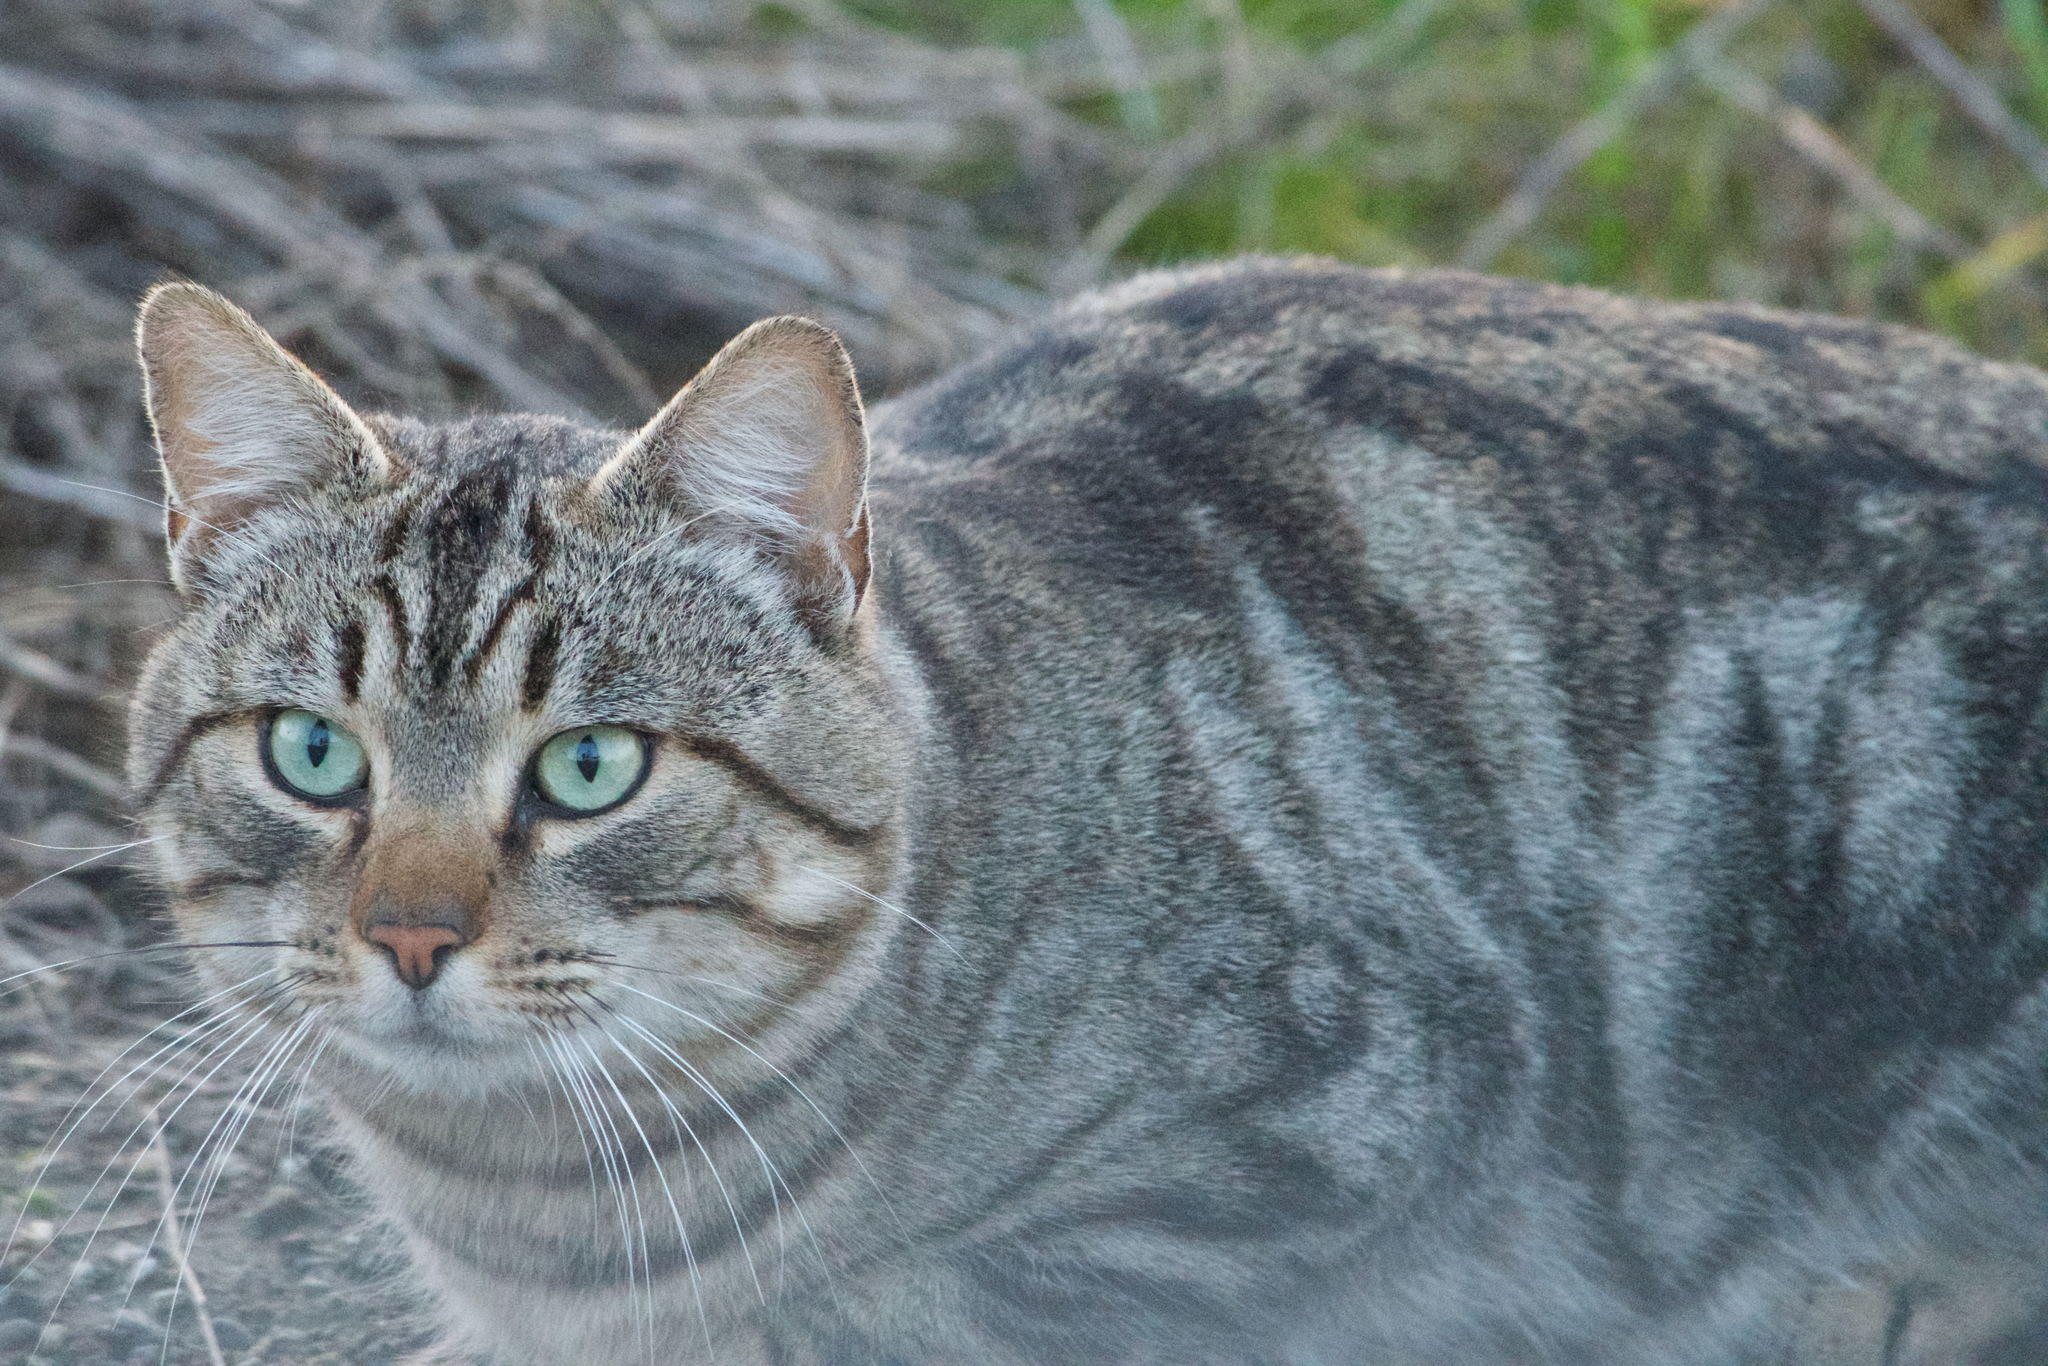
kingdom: Animalia
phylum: Chordata
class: Mammalia
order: Carnivora
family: Felidae
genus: Felis
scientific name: Felis catus
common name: Domestic cat
